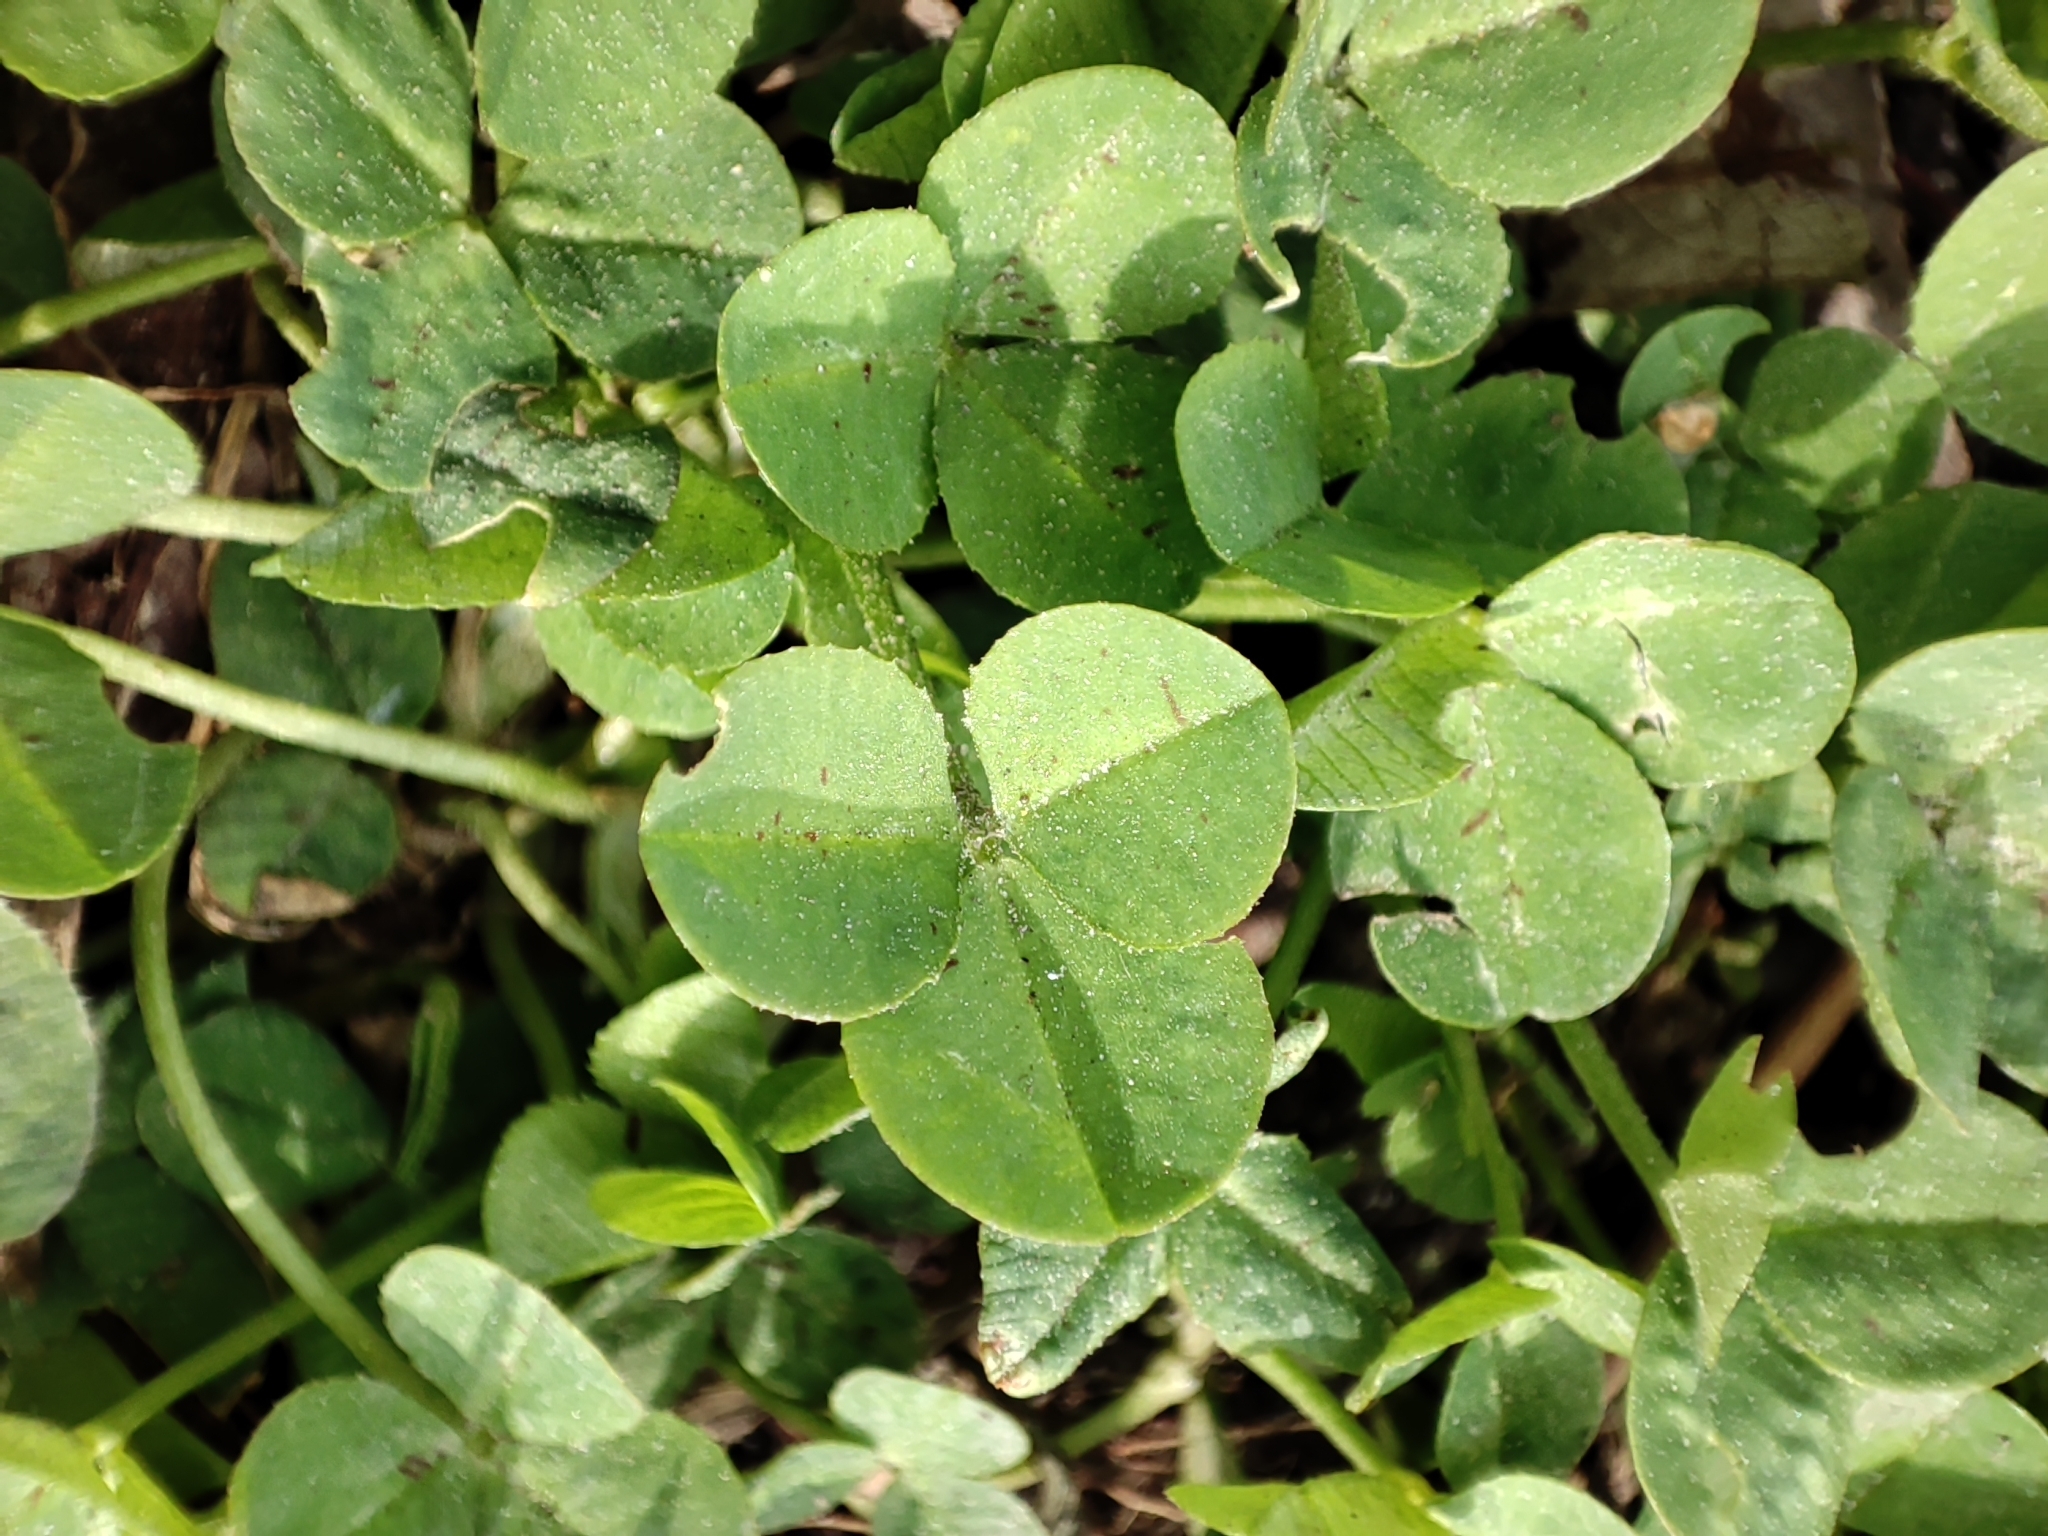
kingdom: Plantae
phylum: Tracheophyta
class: Magnoliopsida
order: Fabales
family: Fabaceae
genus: Trifolium
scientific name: Trifolium repens
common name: White clover
